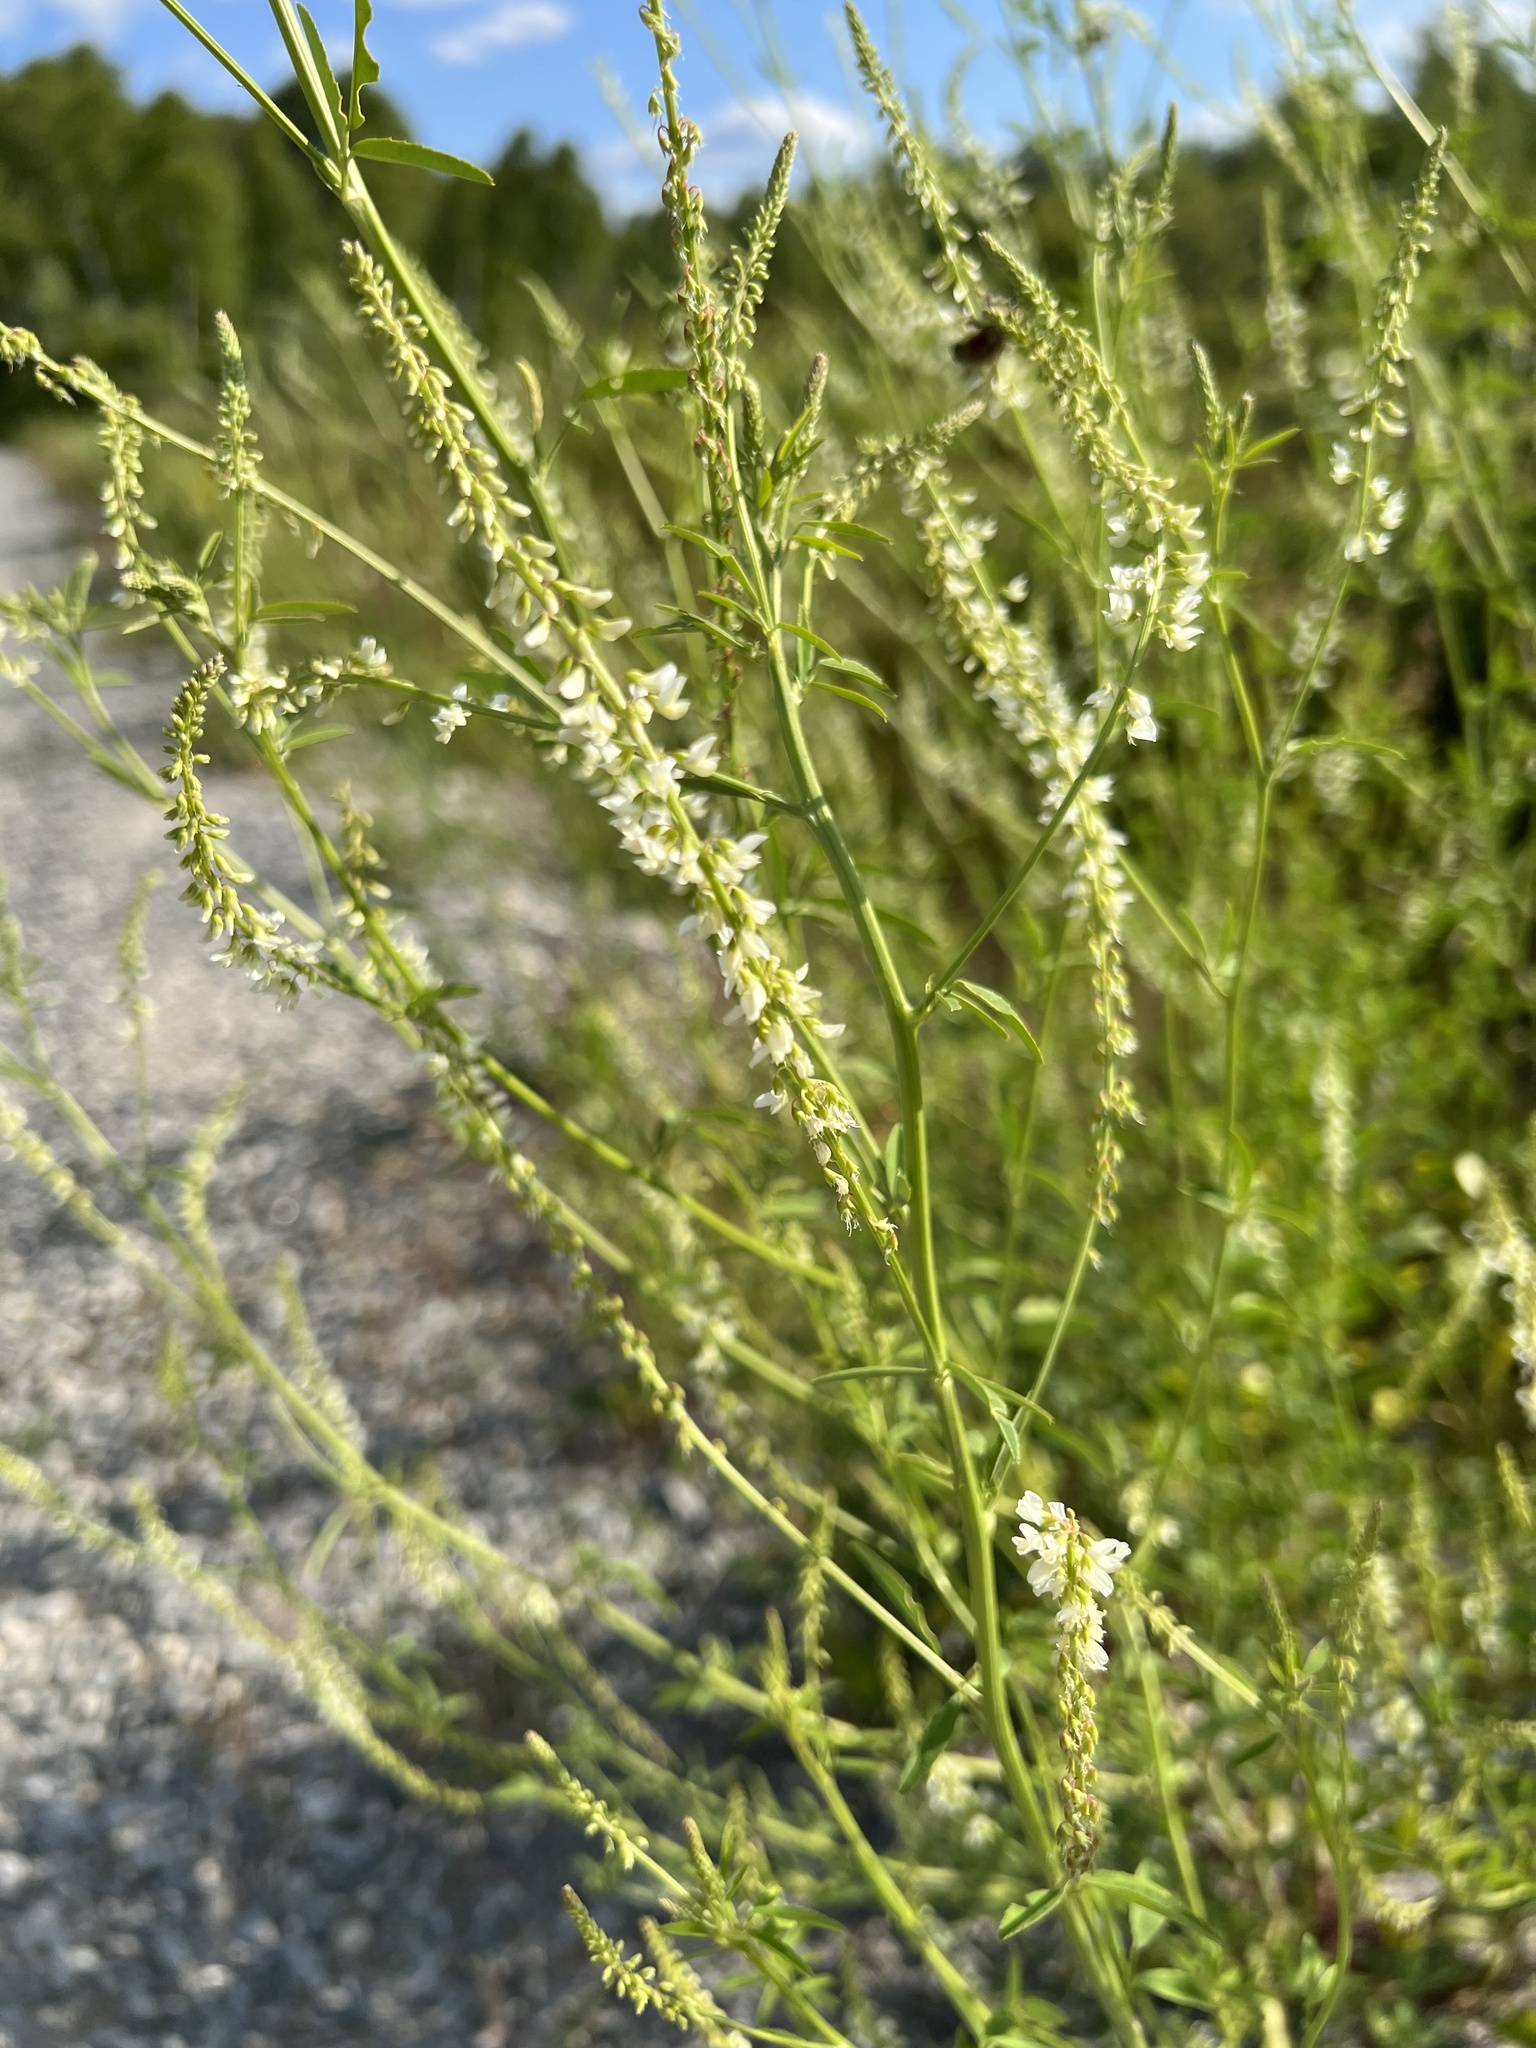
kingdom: Plantae
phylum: Tracheophyta
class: Magnoliopsida
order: Fabales
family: Fabaceae
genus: Melilotus
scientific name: Melilotus albus
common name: White melilot
